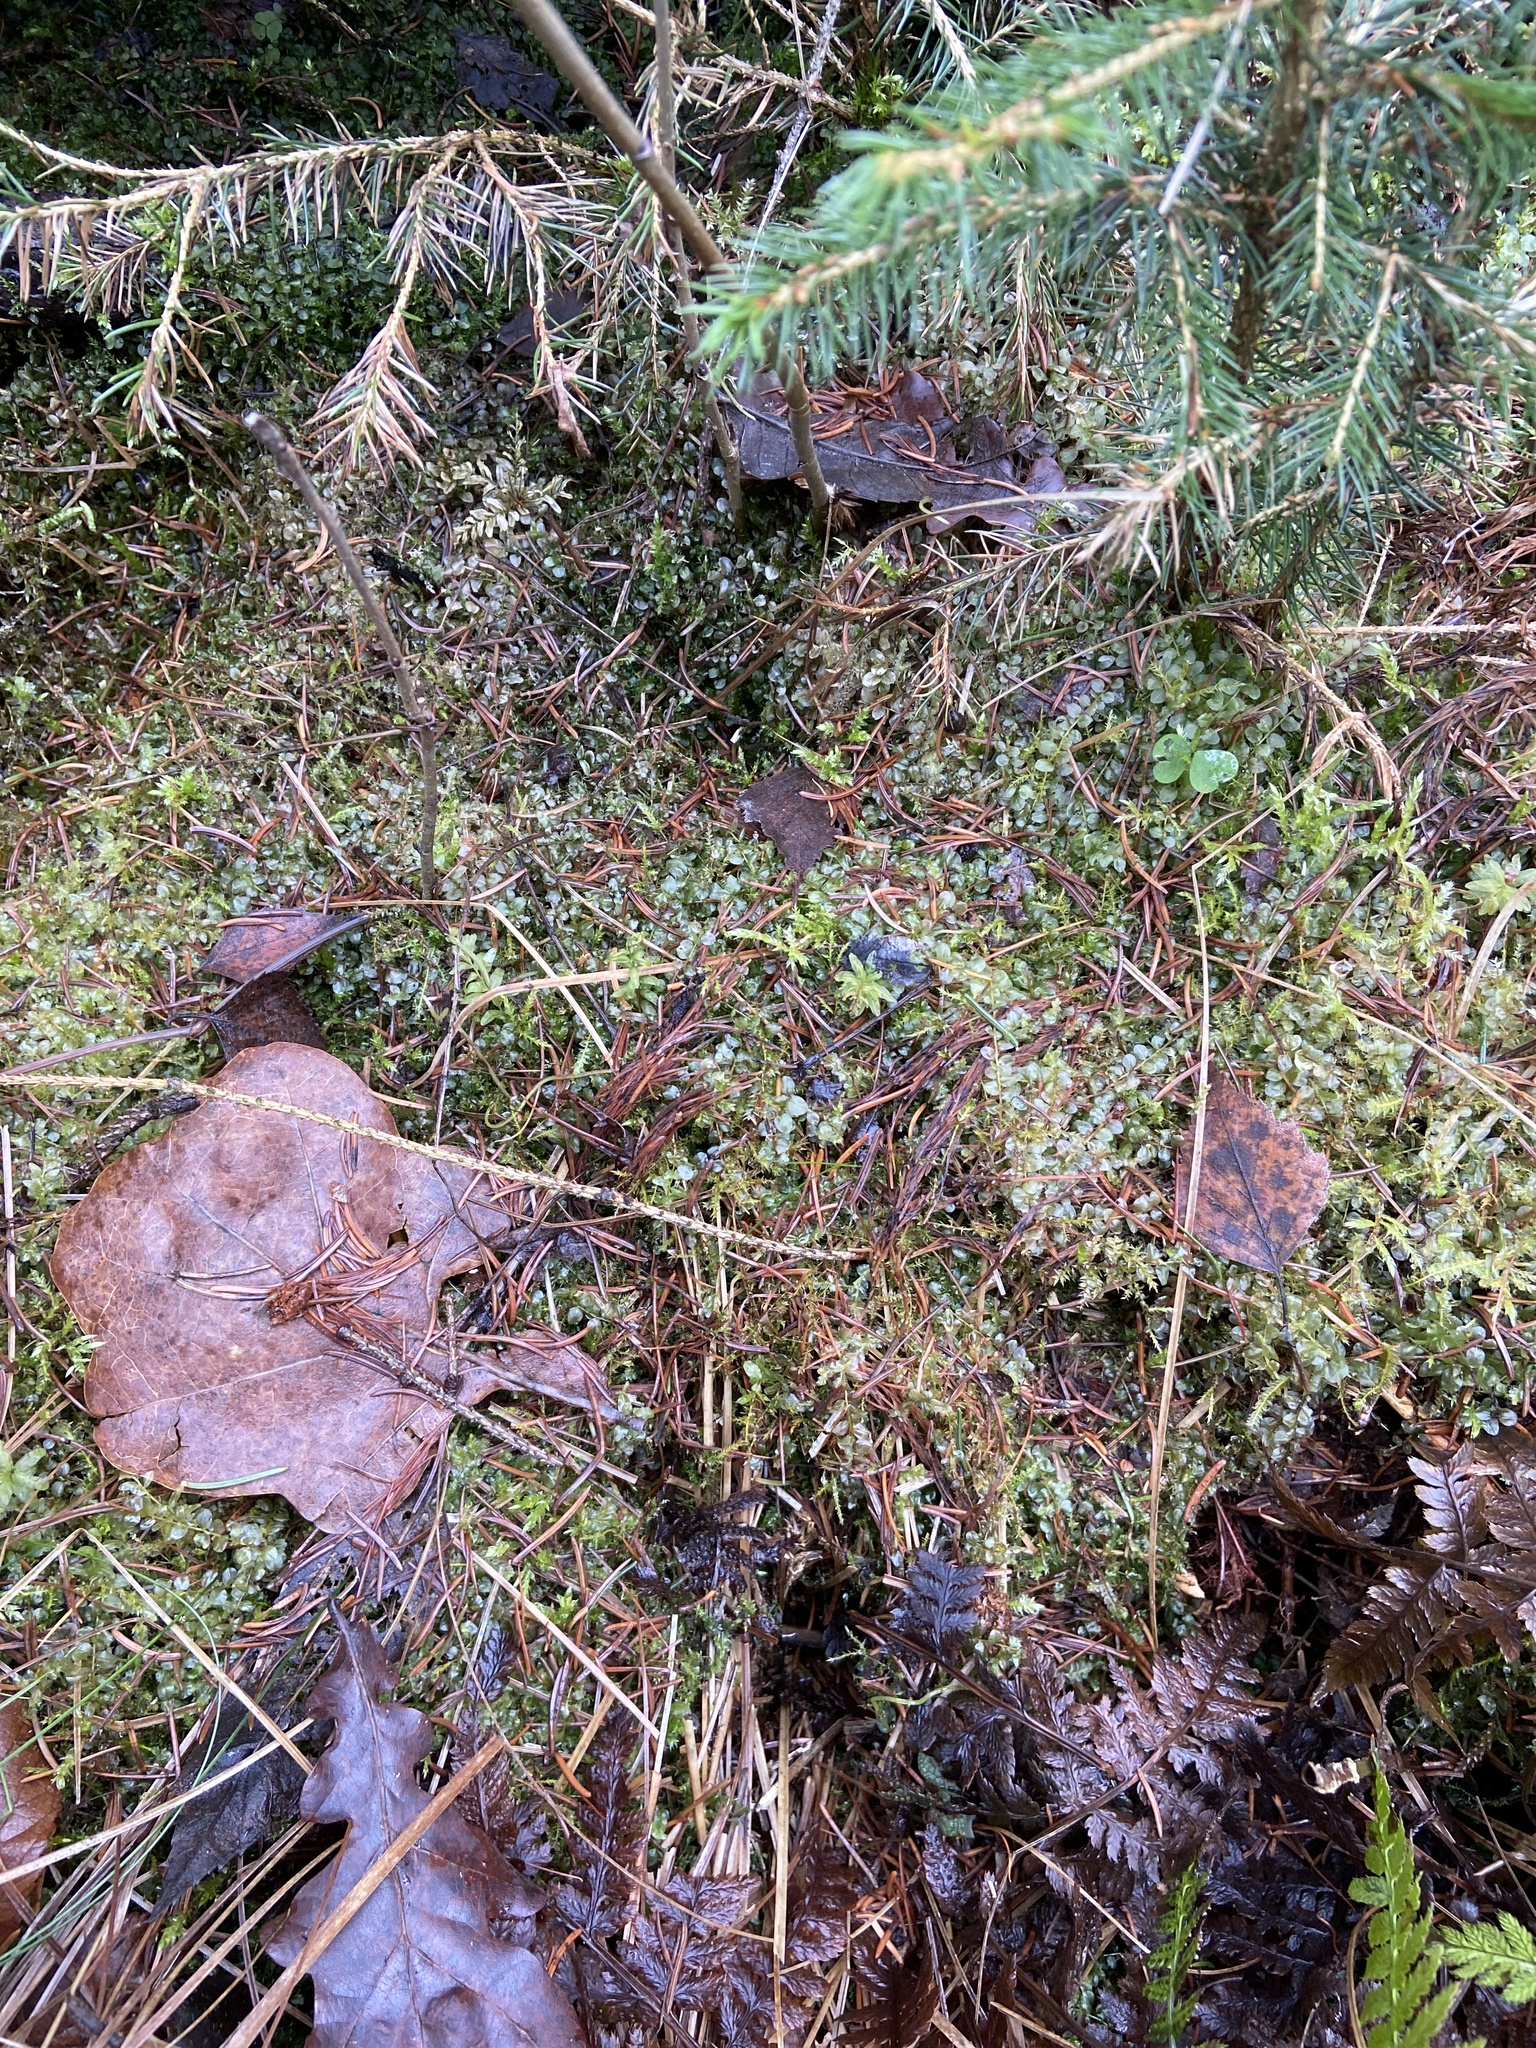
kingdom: Plantae
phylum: Bryophyta
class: Bryopsida
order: Bryales
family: Mniaceae
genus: Plagiomnium
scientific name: Plagiomnium cuspidatum
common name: Woodsy leafy moss
